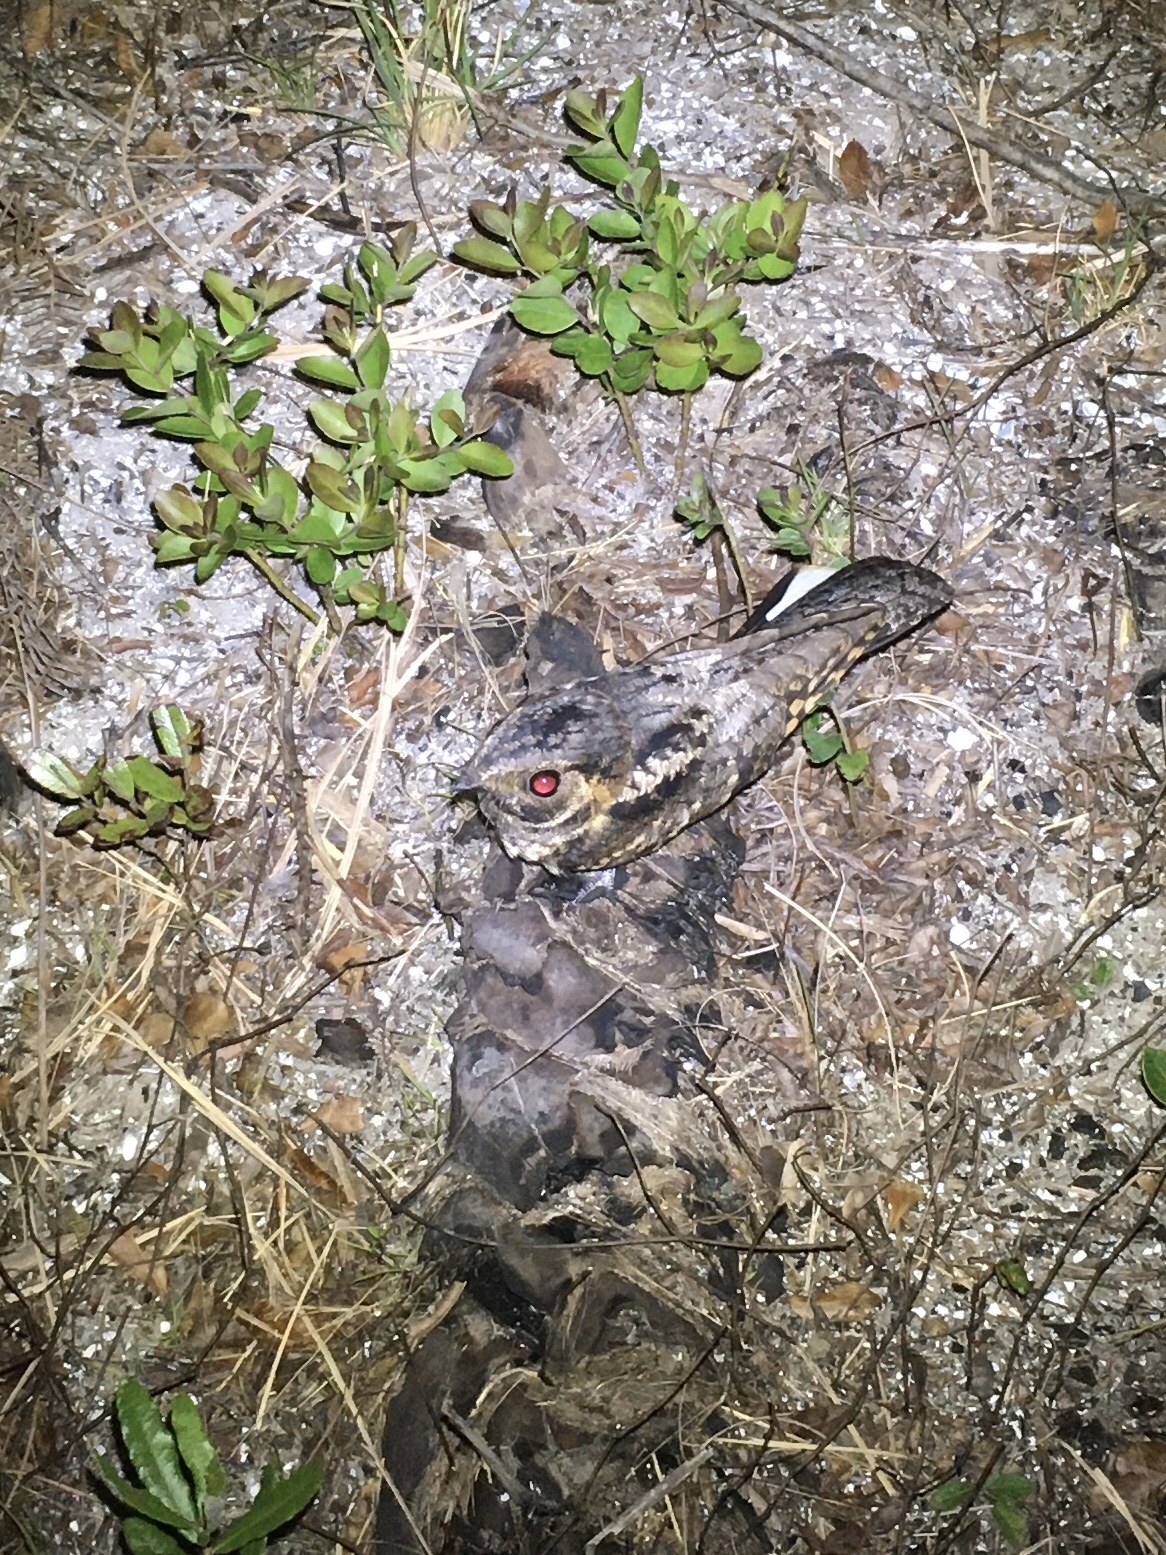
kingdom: Animalia
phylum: Chordata
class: Aves
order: Caprimulgiformes
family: Caprimulgidae
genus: Antrostomus
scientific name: Antrostomus vociferus
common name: Eastern whip-poor-will
